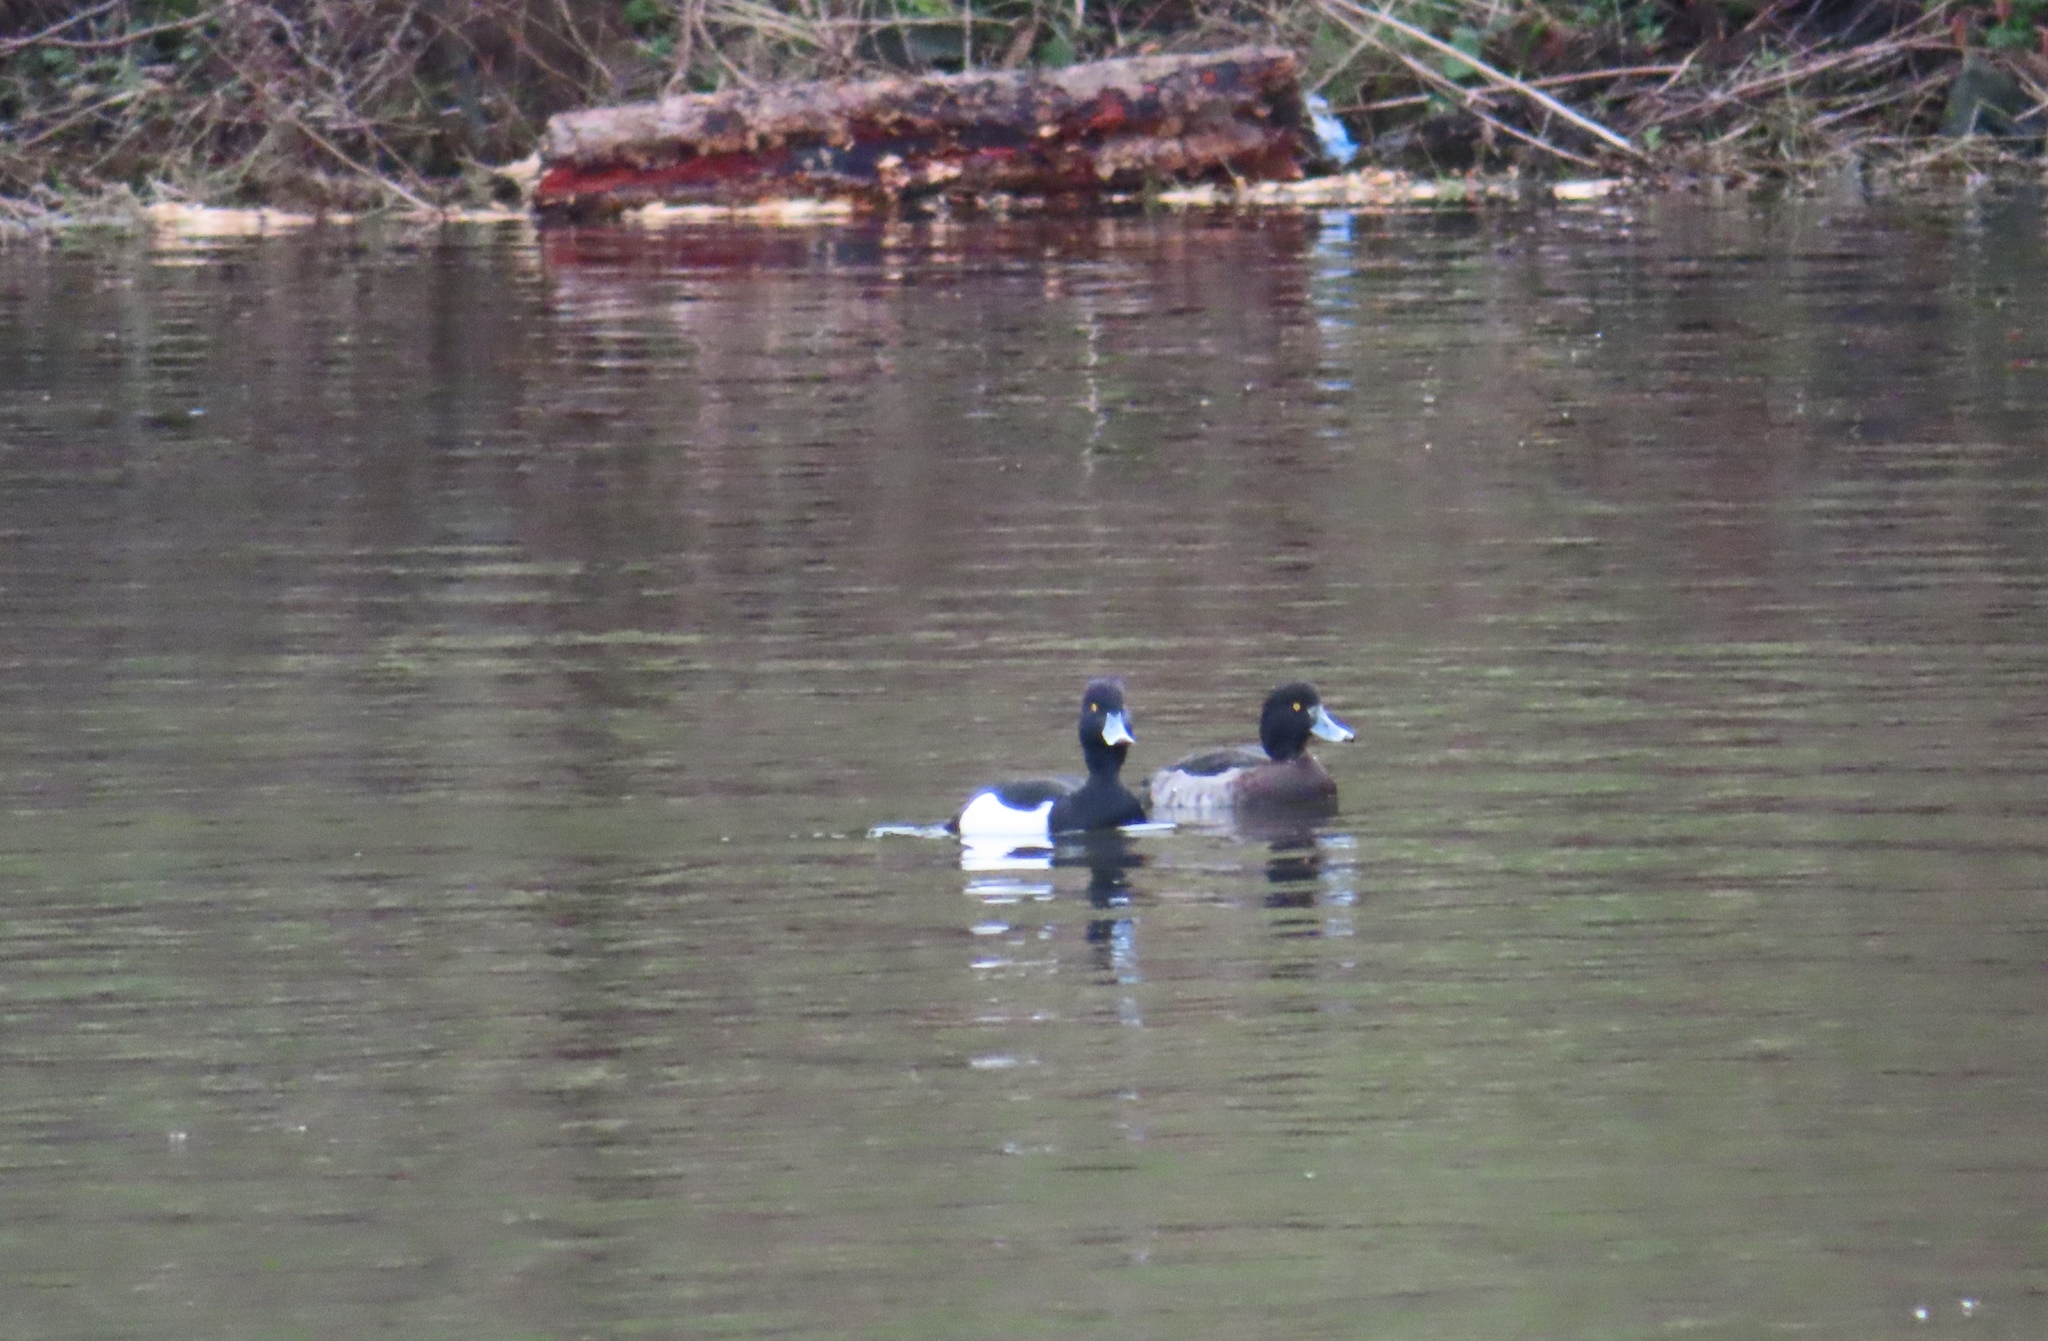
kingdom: Animalia
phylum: Chordata
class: Aves
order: Anseriformes
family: Anatidae
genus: Aythya
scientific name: Aythya fuligula
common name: Tufted duck
